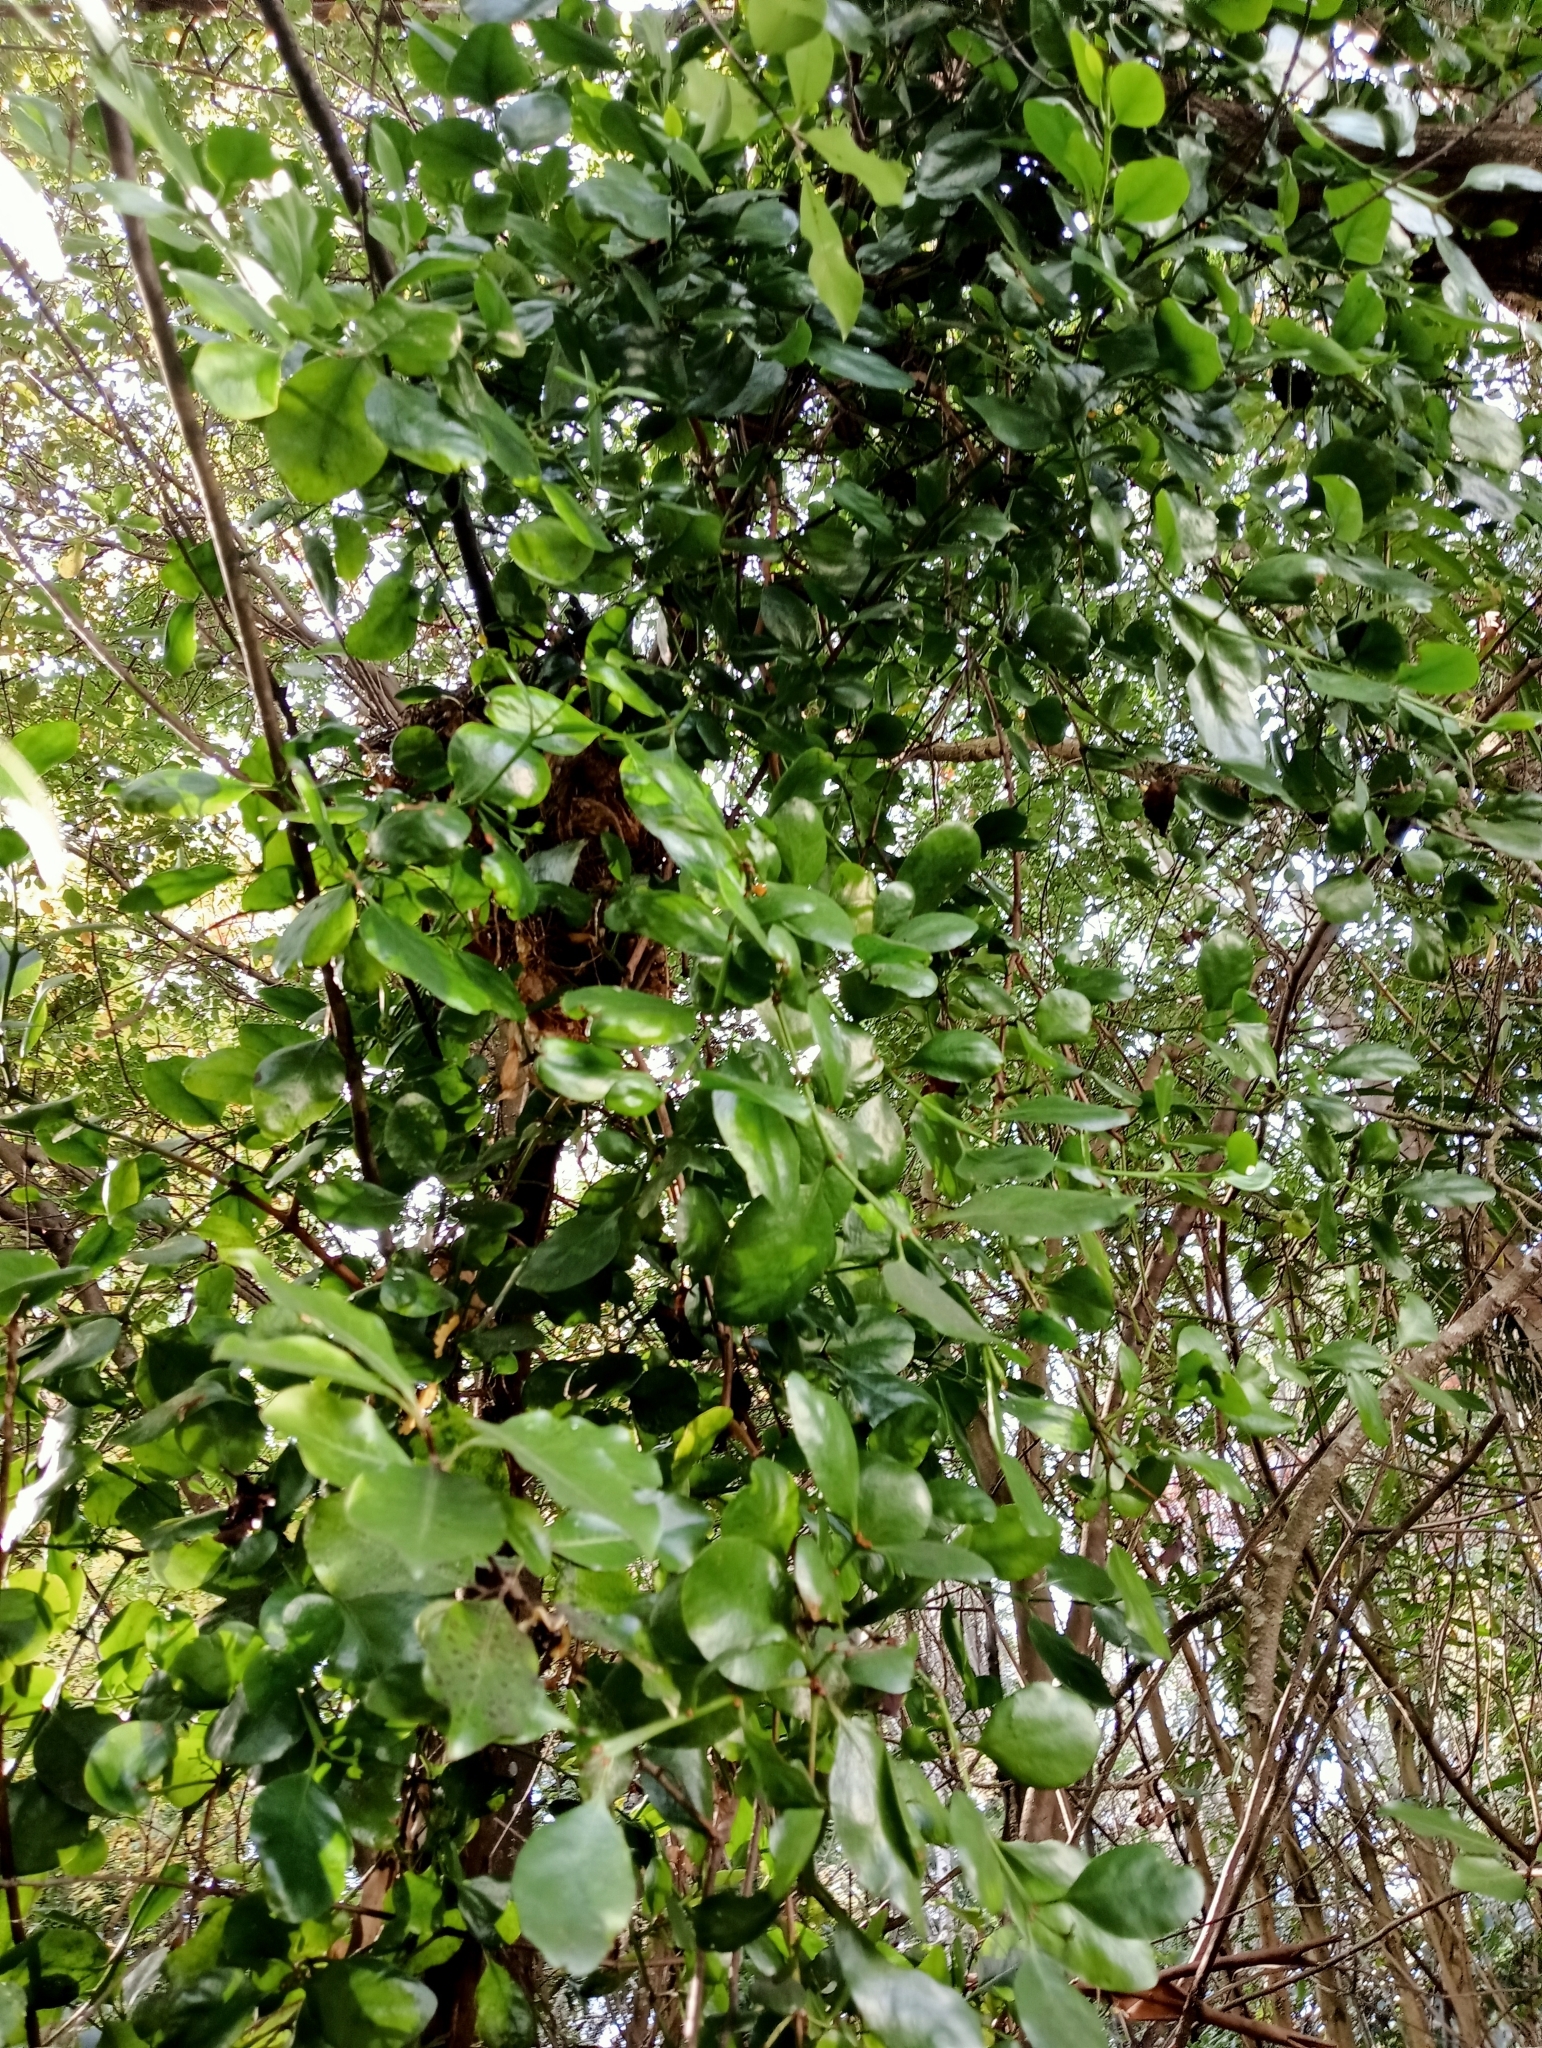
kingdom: Plantae
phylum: Tracheophyta
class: Magnoliopsida
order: Santalales
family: Loranthaceae
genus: Ileostylus
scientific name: Ileostylus micranthus
